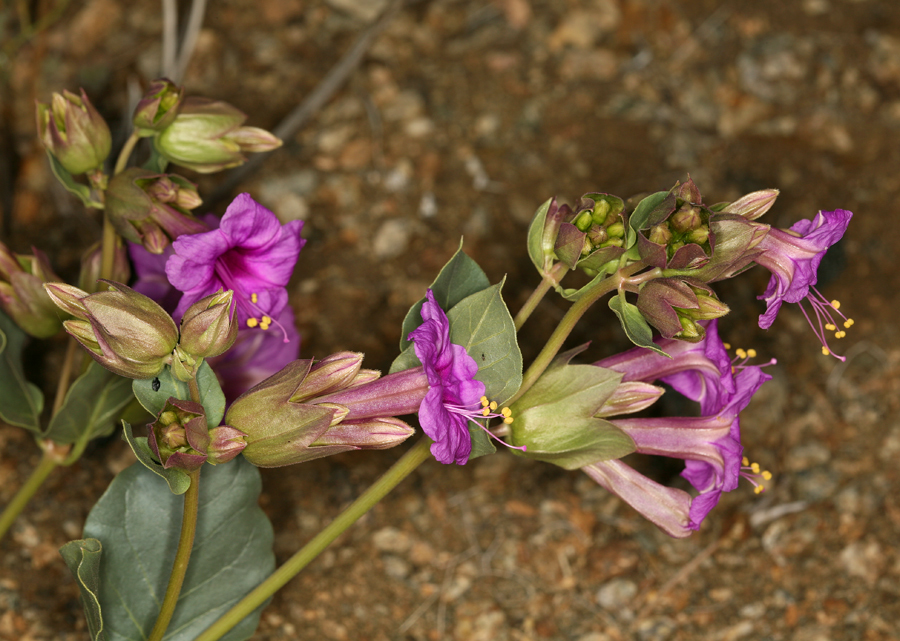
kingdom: Plantae
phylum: Tracheophyta
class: Magnoliopsida
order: Caryophyllales
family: Nyctaginaceae
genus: Mirabilis
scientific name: Mirabilis multiflora
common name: Froebel's four-o'clock
